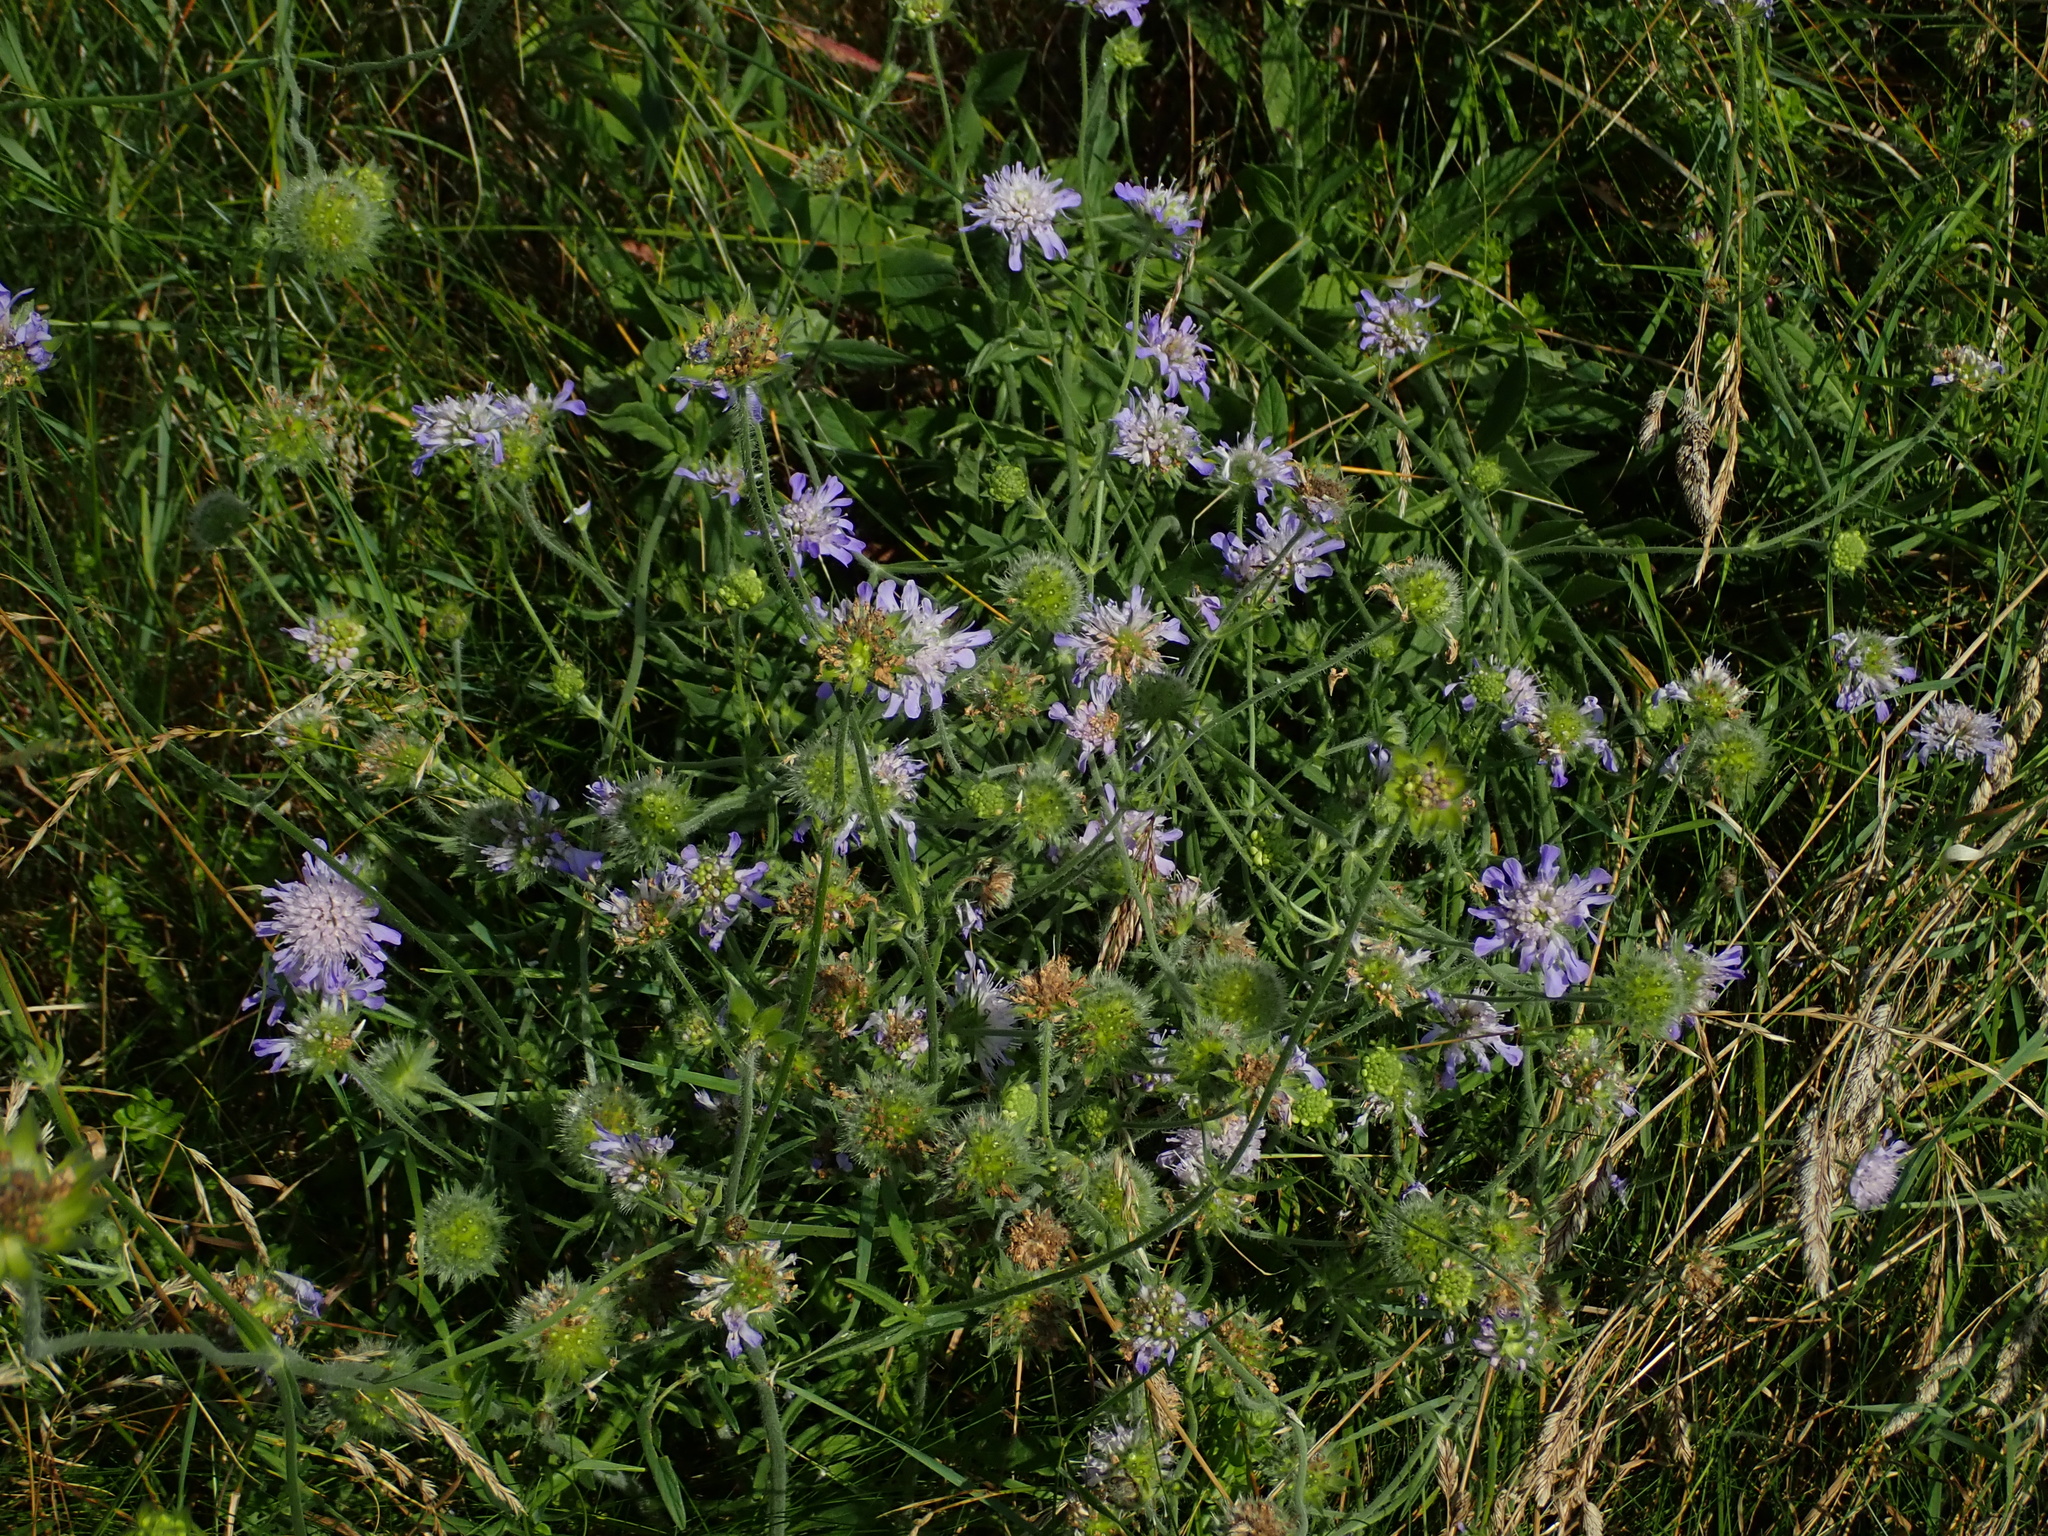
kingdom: Plantae
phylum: Tracheophyta
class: Magnoliopsida
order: Dipsacales
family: Caprifoliaceae
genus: Knautia
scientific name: Knautia arvensis
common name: Field scabiosa
